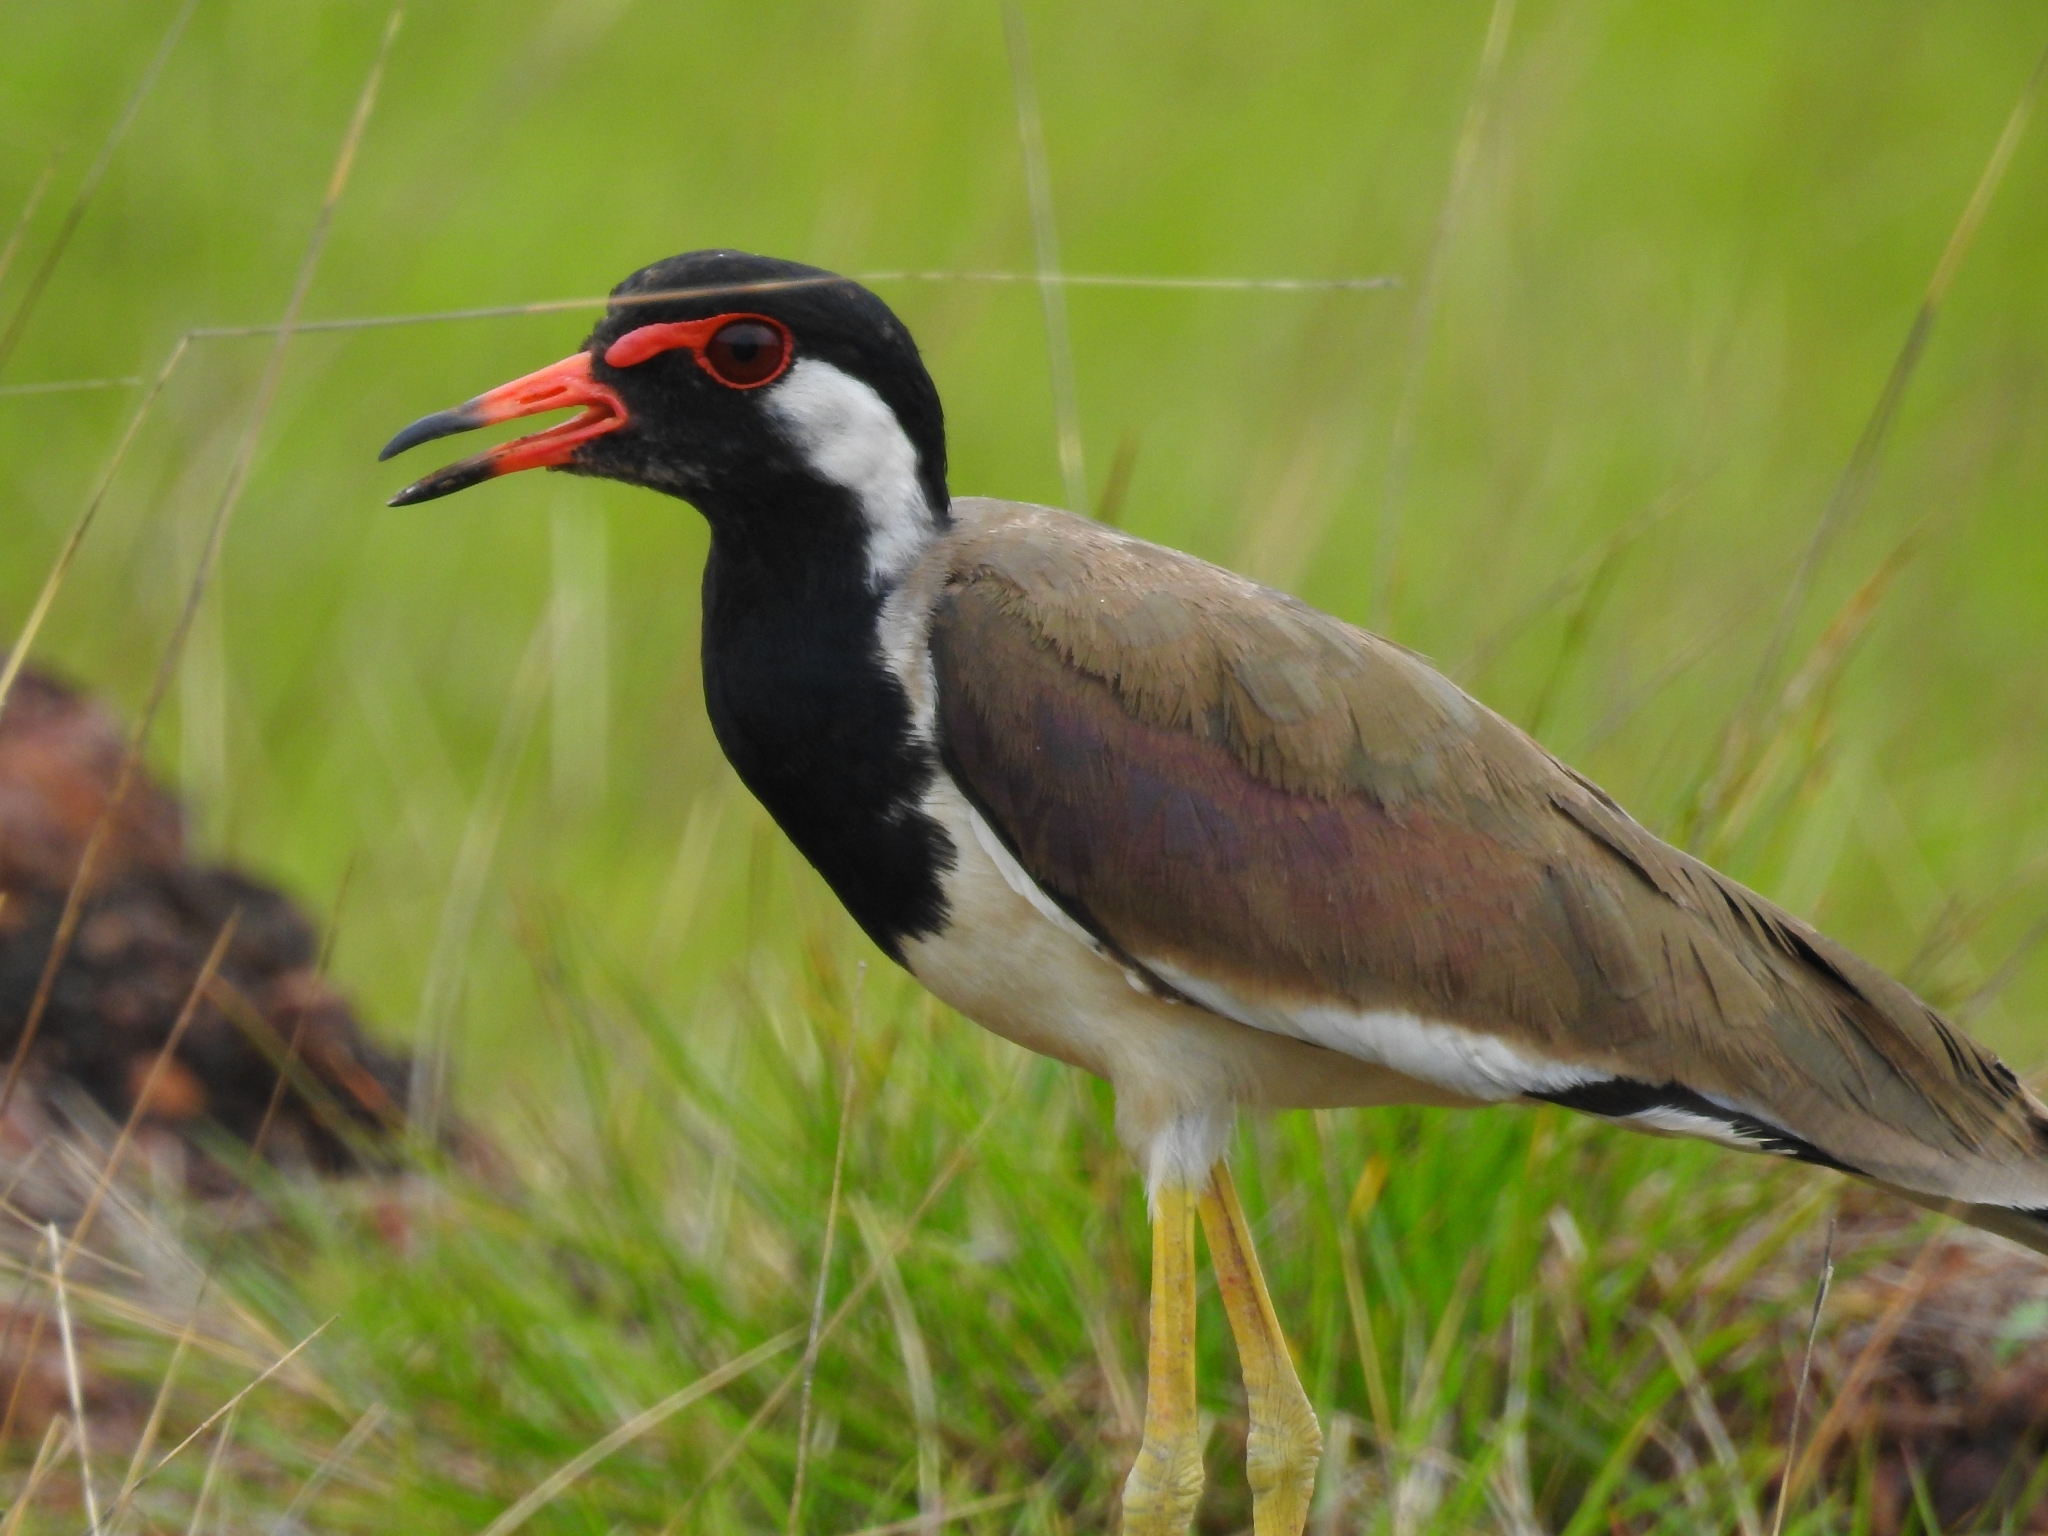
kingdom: Animalia
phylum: Chordata
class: Aves
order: Charadriiformes
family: Charadriidae
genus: Vanellus
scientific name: Vanellus indicus
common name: Red-wattled lapwing
